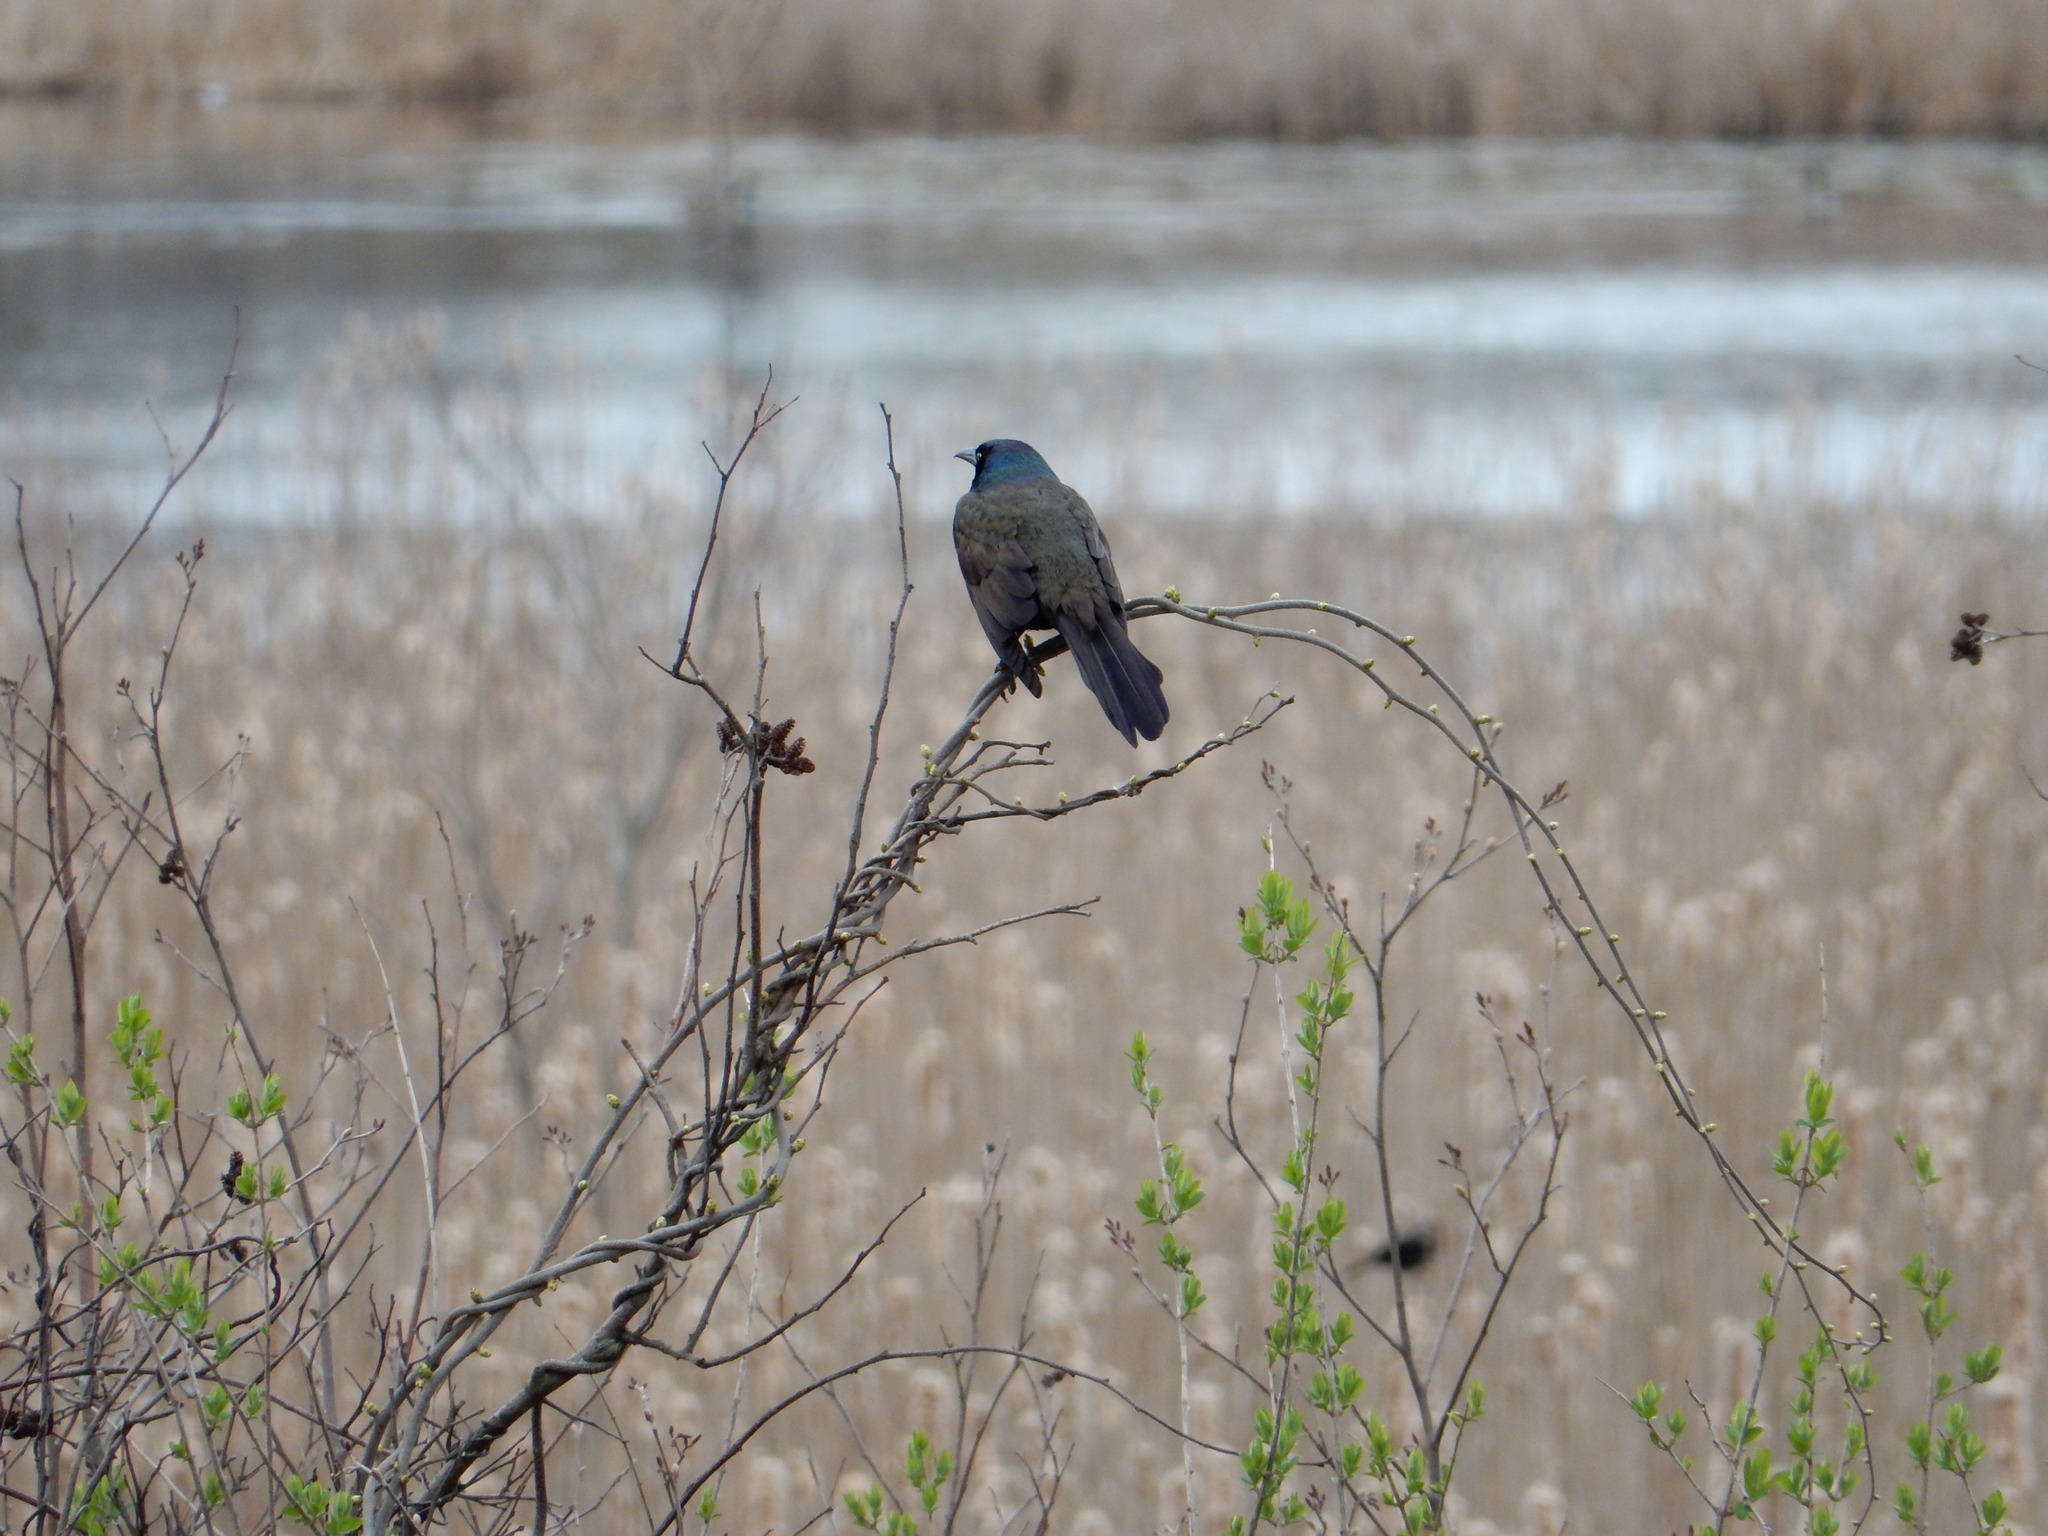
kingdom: Animalia
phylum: Chordata
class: Aves
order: Passeriformes
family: Icteridae
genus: Quiscalus
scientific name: Quiscalus quiscula
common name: Common grackle
